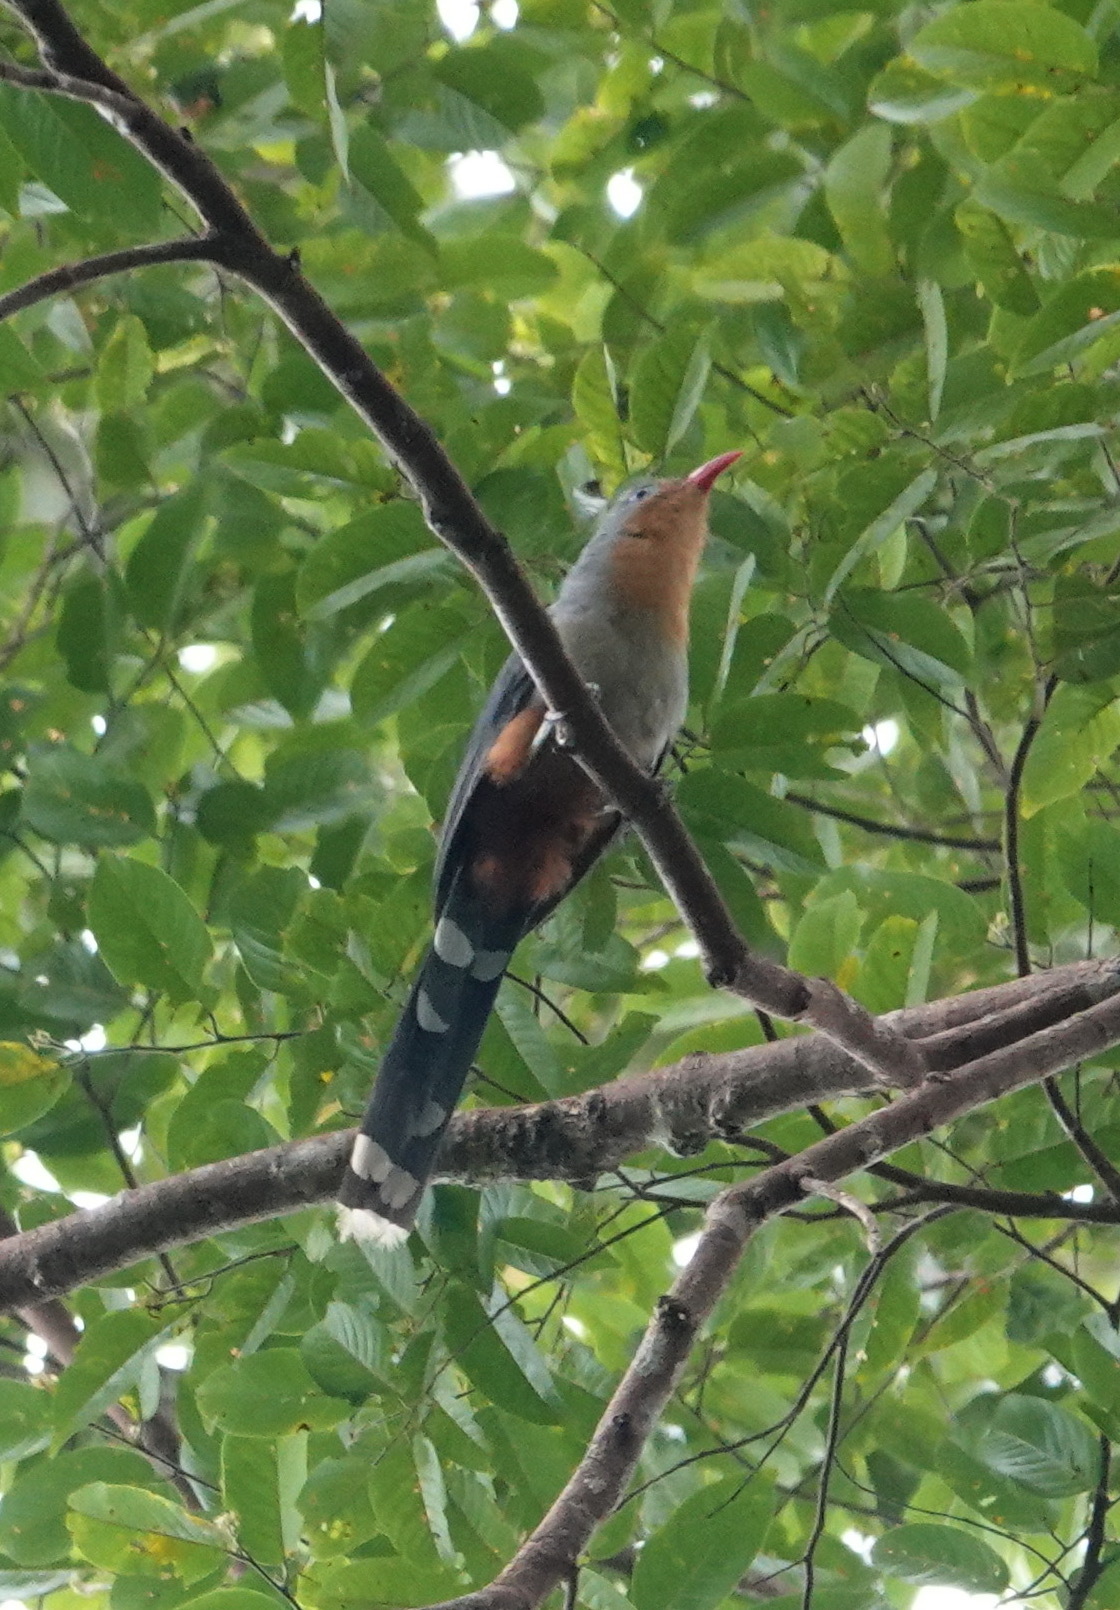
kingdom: Animalia
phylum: Chordata
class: Aves
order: Cuculiformes
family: Cuculidae
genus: Zanclostomus
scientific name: Zanclostomus javanicus
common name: Red-billed malkoha
